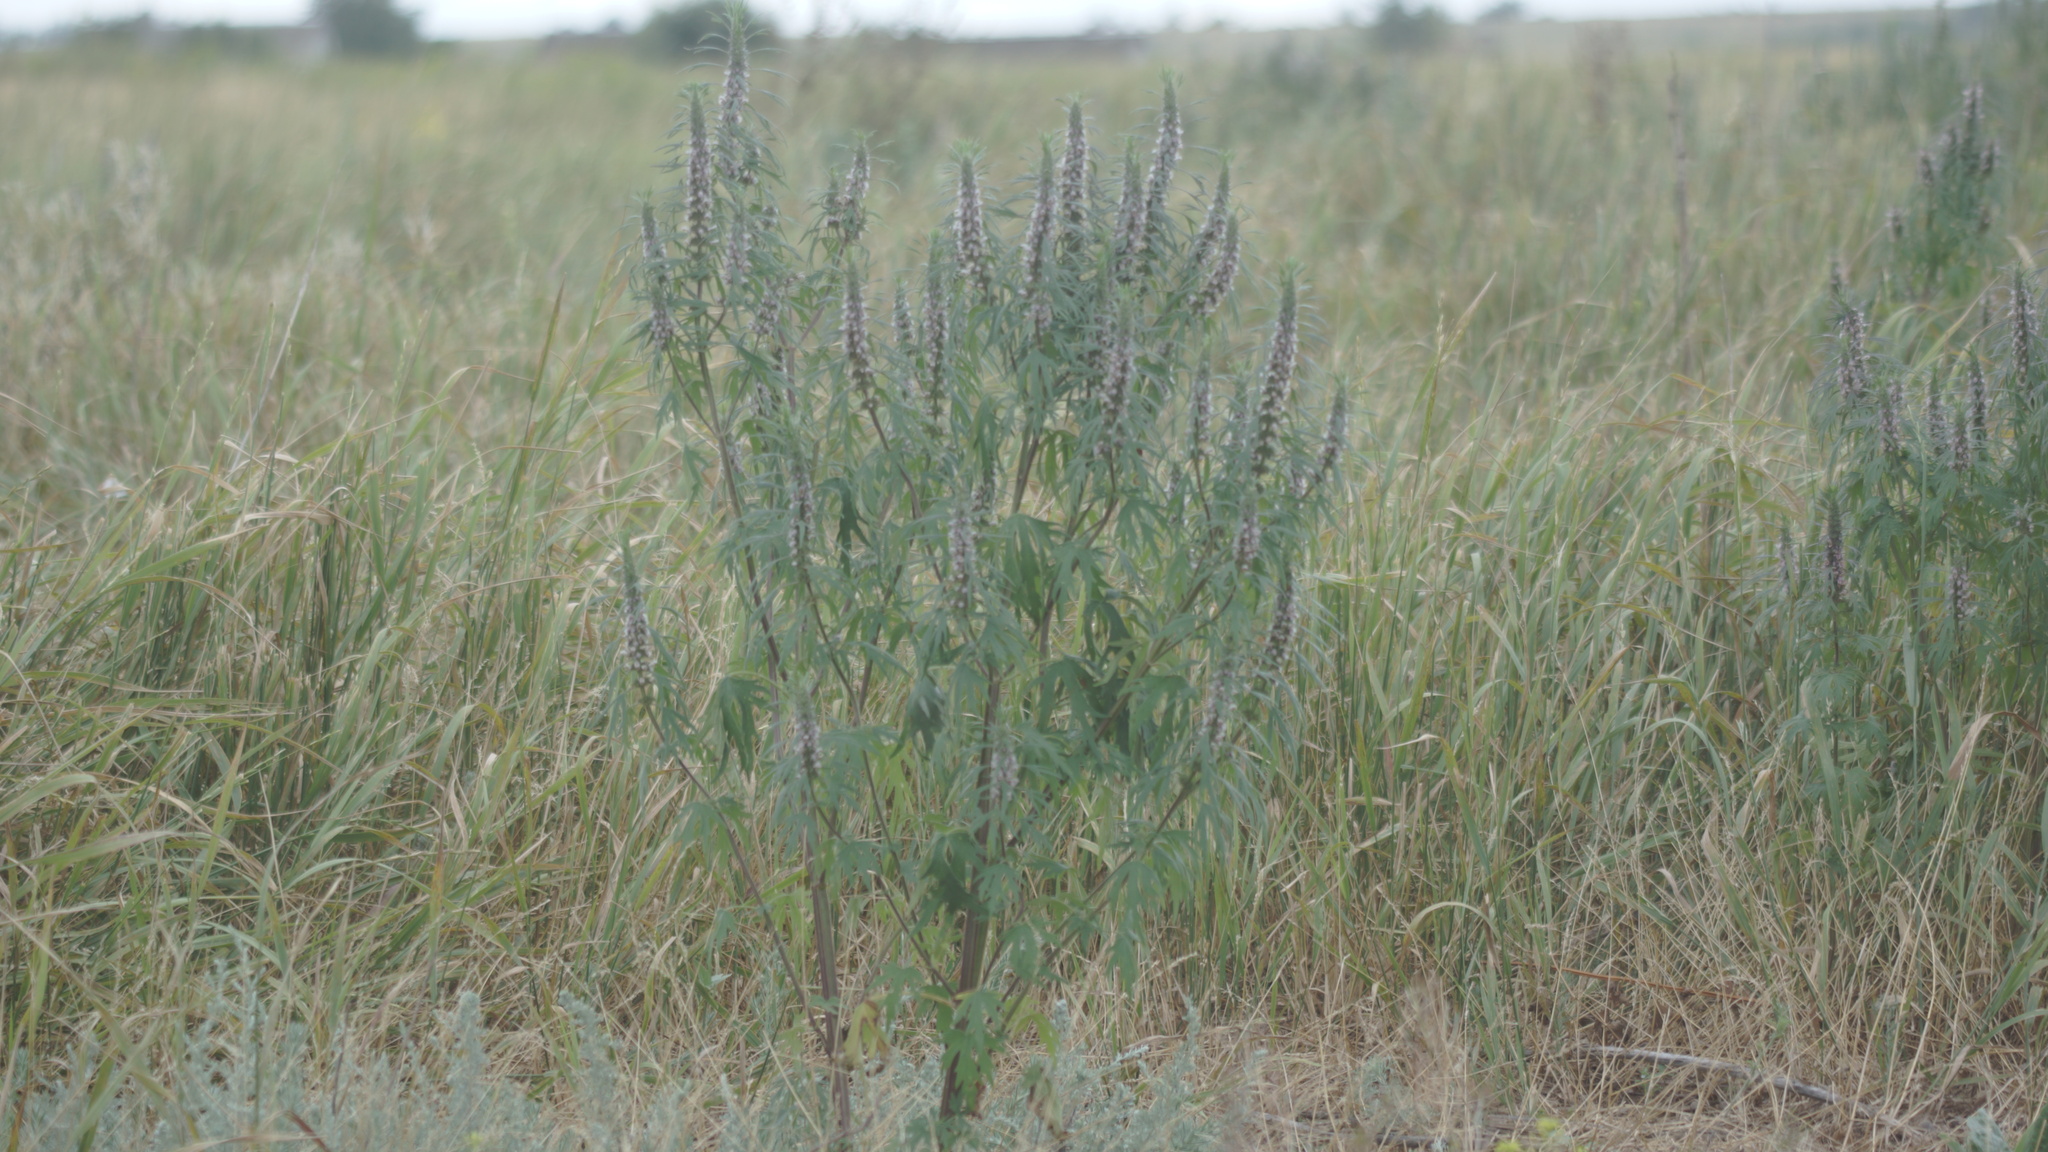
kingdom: Plantae
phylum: Tracheophyta
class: Magnoliopsida
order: Lamiales
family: Lamiaceae
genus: Leonurus
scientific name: Leonurus glaucescens
